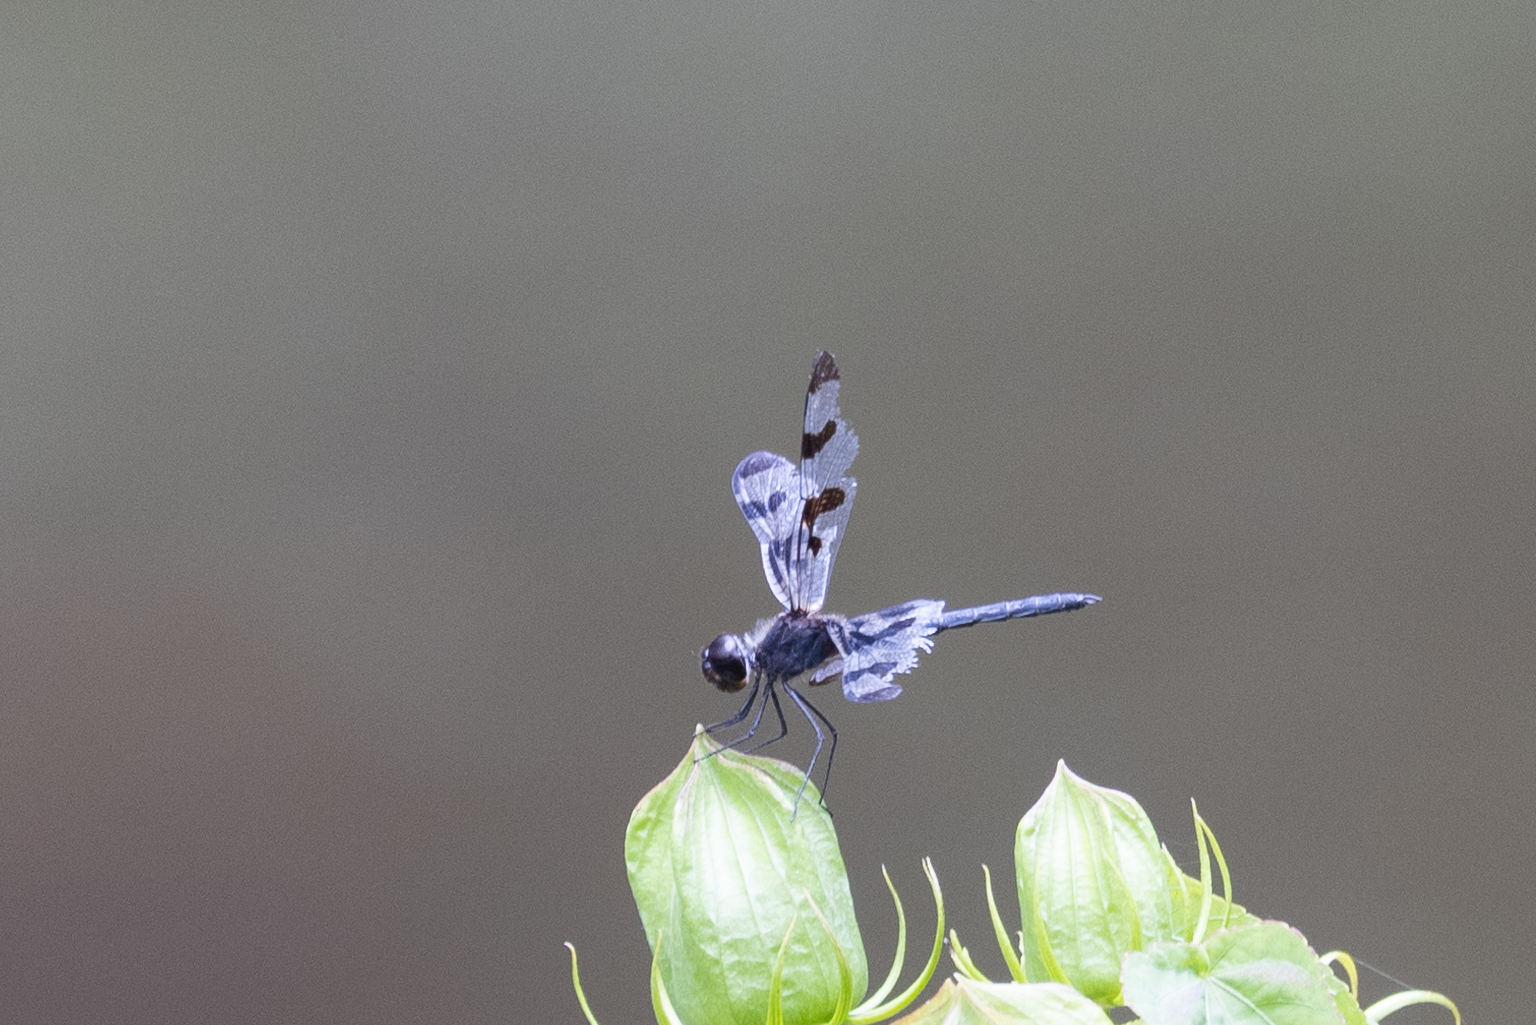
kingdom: Animalia
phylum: Arthropoda
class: Insecta
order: Odonata
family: Libellulidae
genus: Celithemis
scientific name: Celithemis fasciata
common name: Banded pennant
